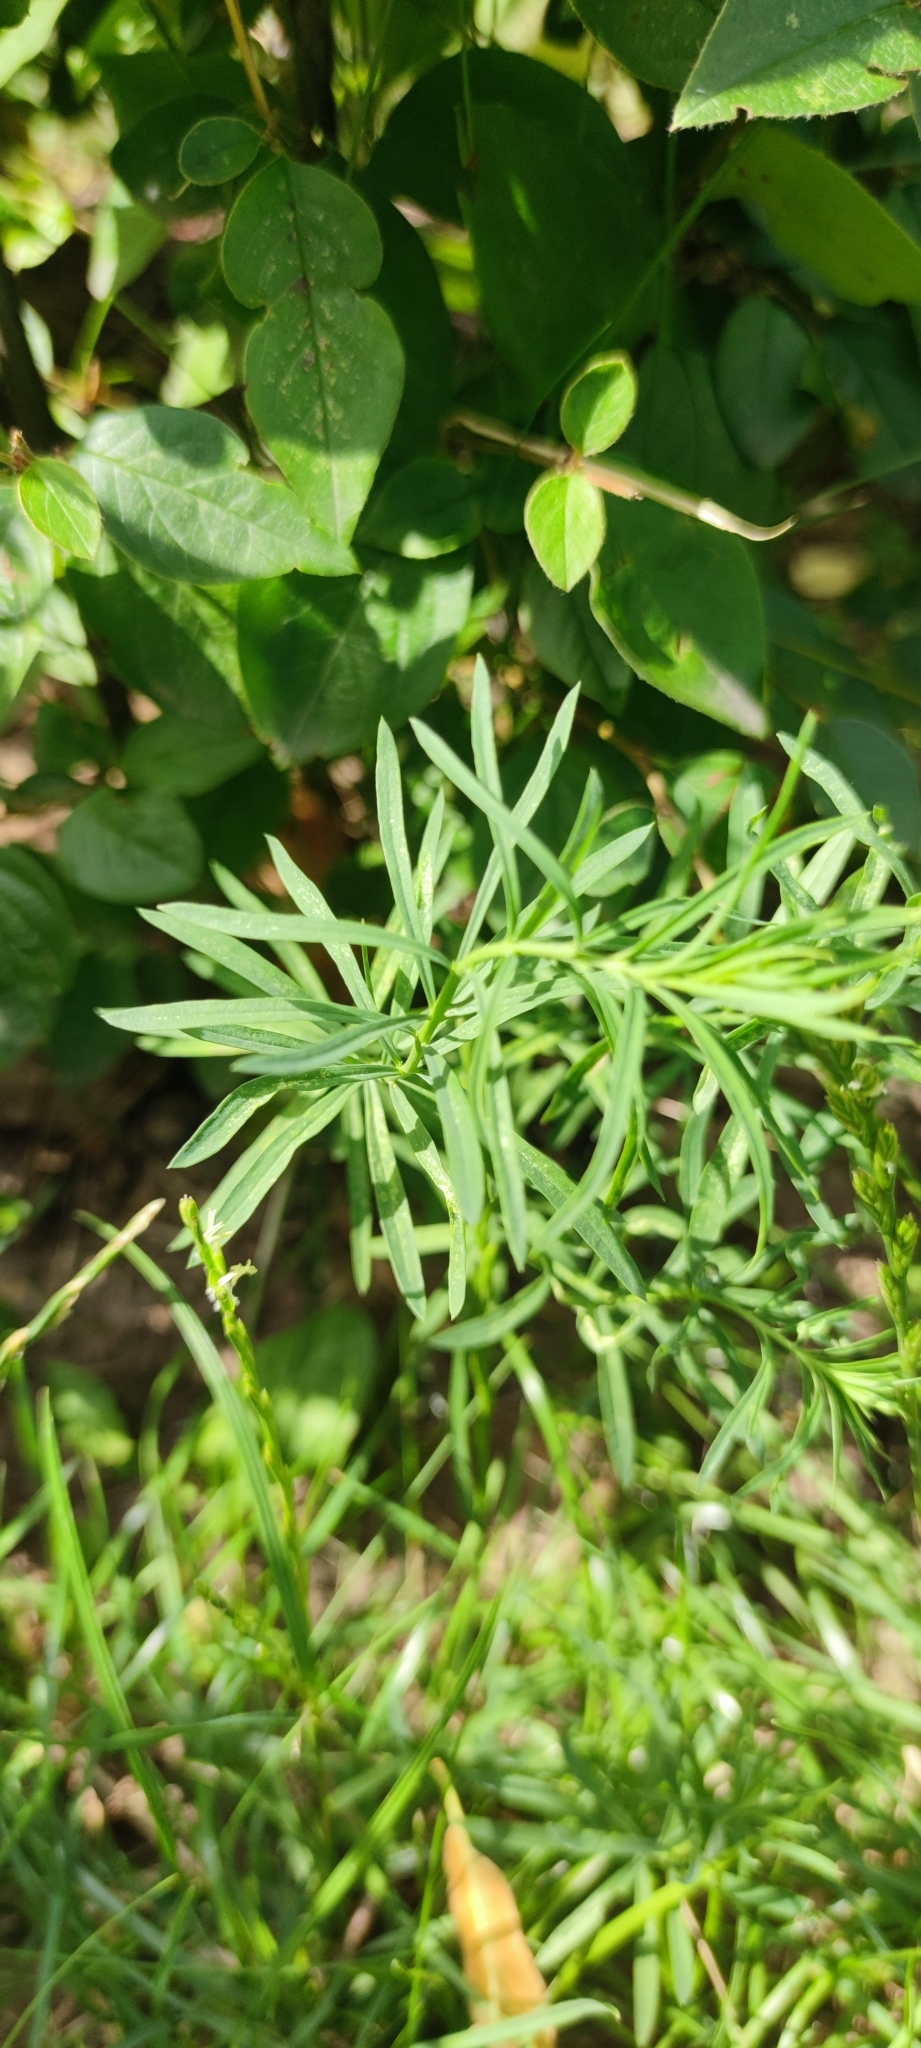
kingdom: Plantae
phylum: Tracheophyta
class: Magnoliopsida
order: Lamiales
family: Plantaginaceae
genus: Linaria
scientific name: Linaria vulgaris
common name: Butter and eggs
